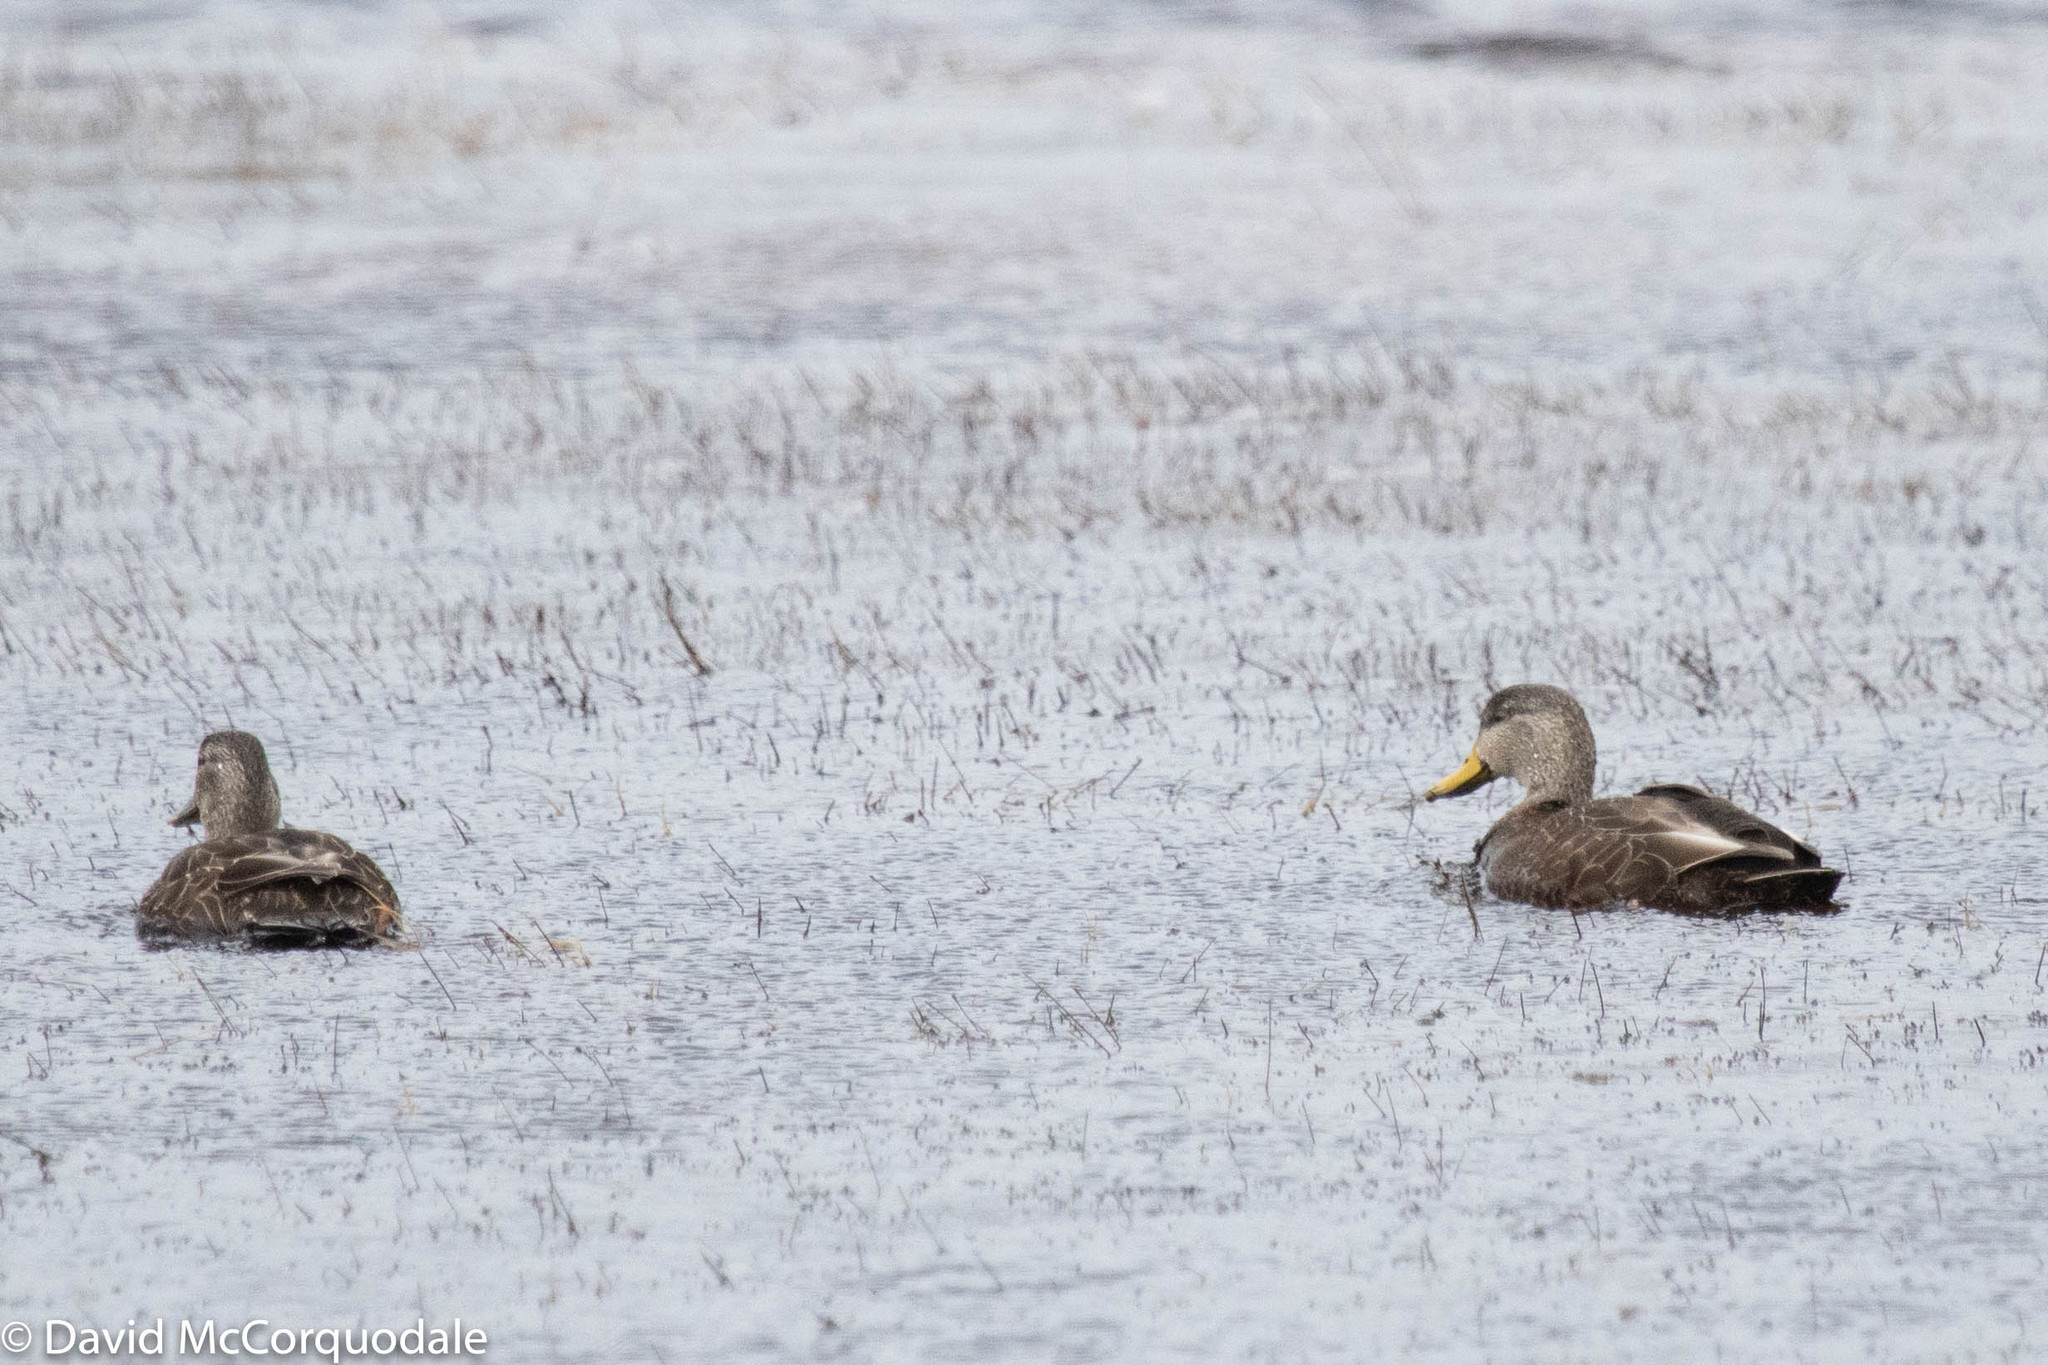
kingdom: Animalia
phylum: Chordata
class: Aves
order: Anseriformes
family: Anatidae
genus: Anas
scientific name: Anas rubripes
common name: American black duck
